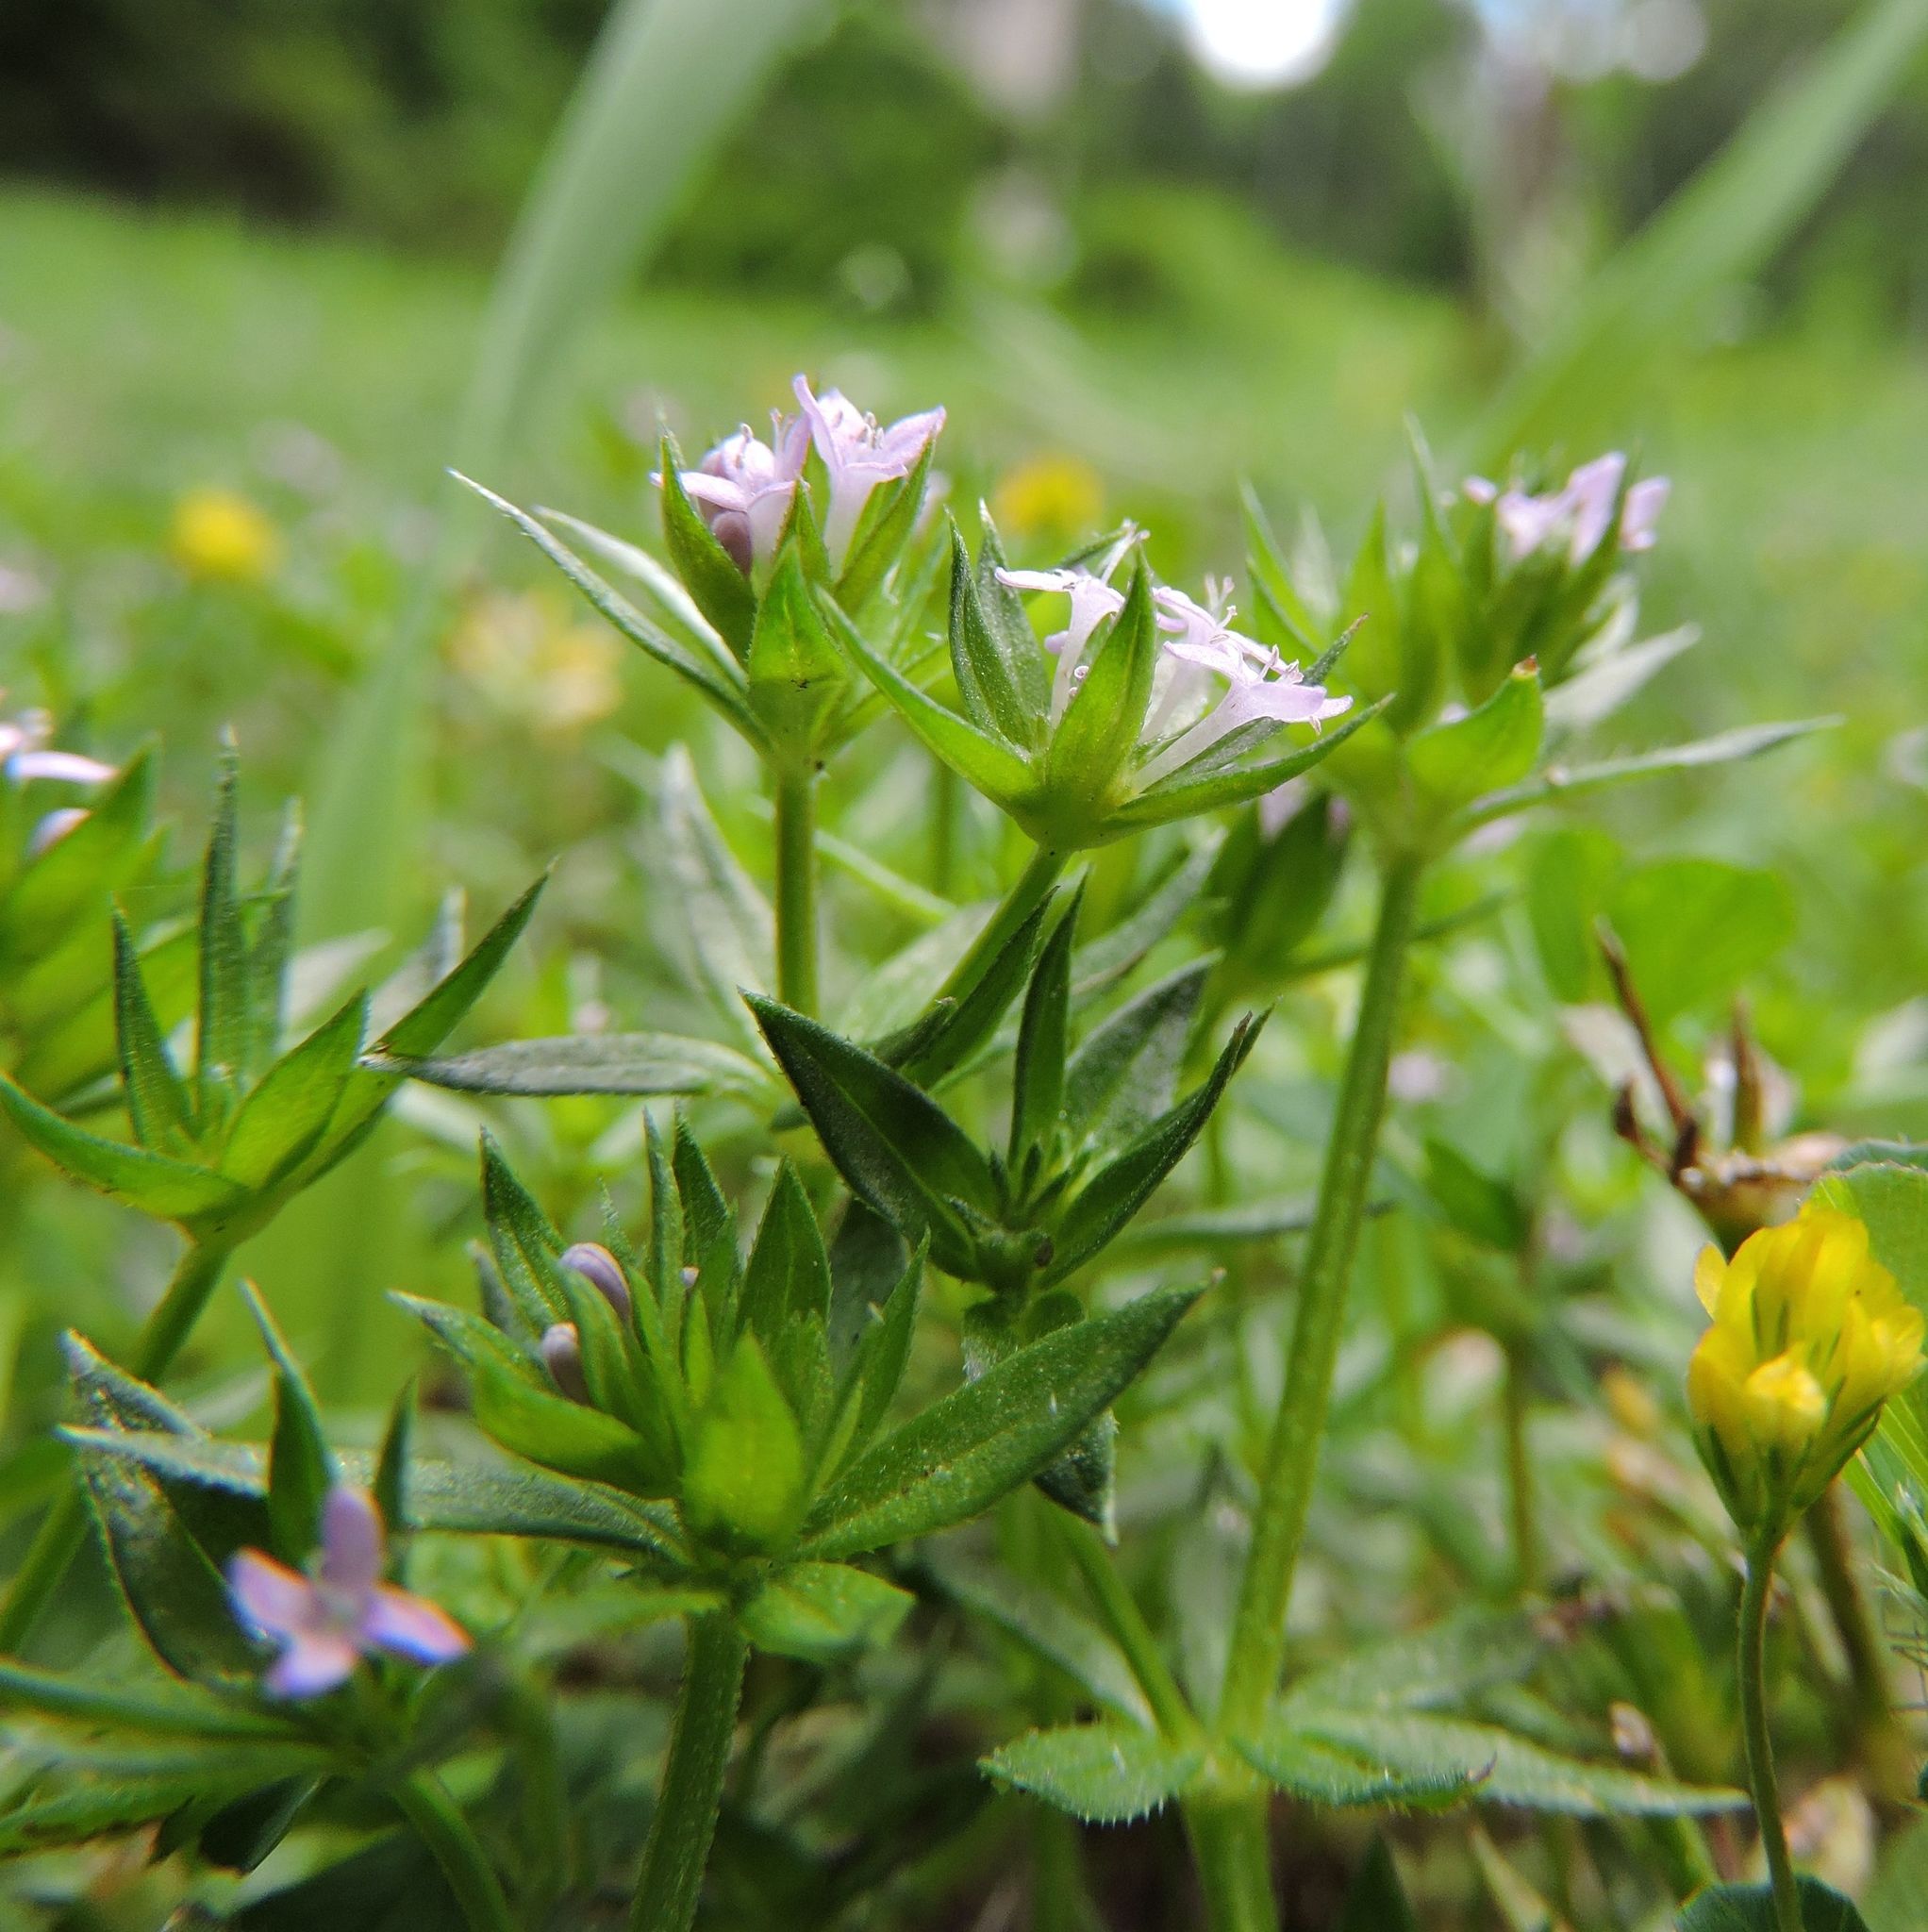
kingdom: Plantae
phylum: Tracheophyta
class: Magnoliopsida
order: Gentianales
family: Rubiaceae
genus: Sherardia
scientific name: Sherardia arvensis
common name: Field madder
